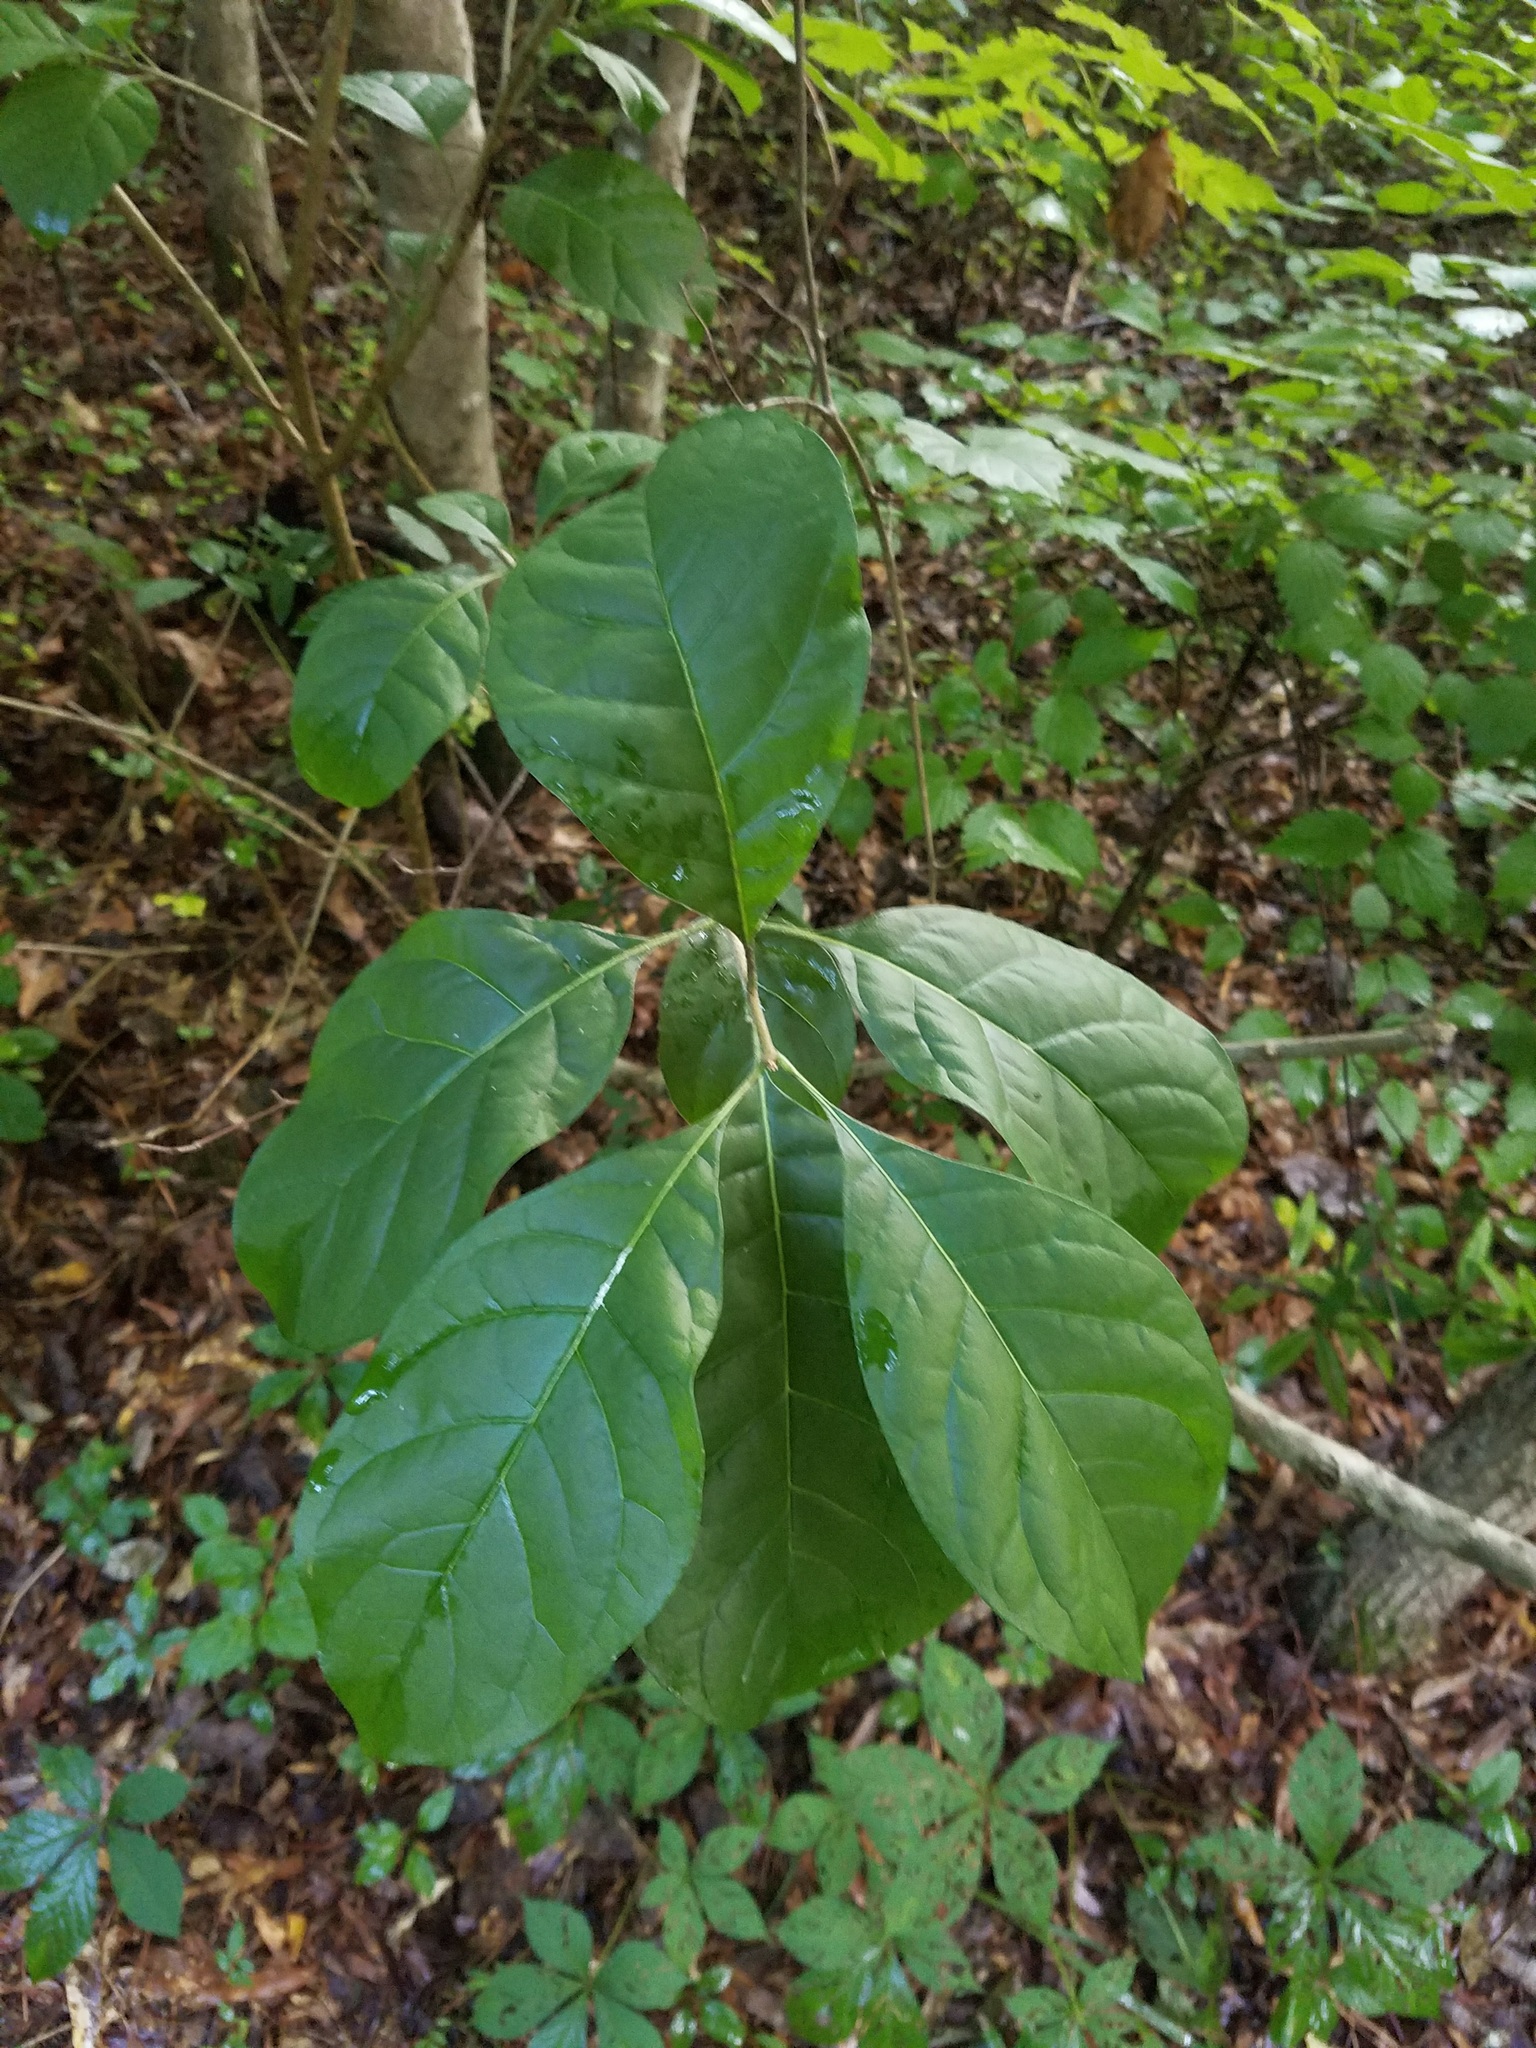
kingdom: Plantae
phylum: Tracheophyta
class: Magnoliopsida
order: Lamiales
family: Oleaceae
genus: Chionanthus
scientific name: Chionanthus virginicus
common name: American fringetree
